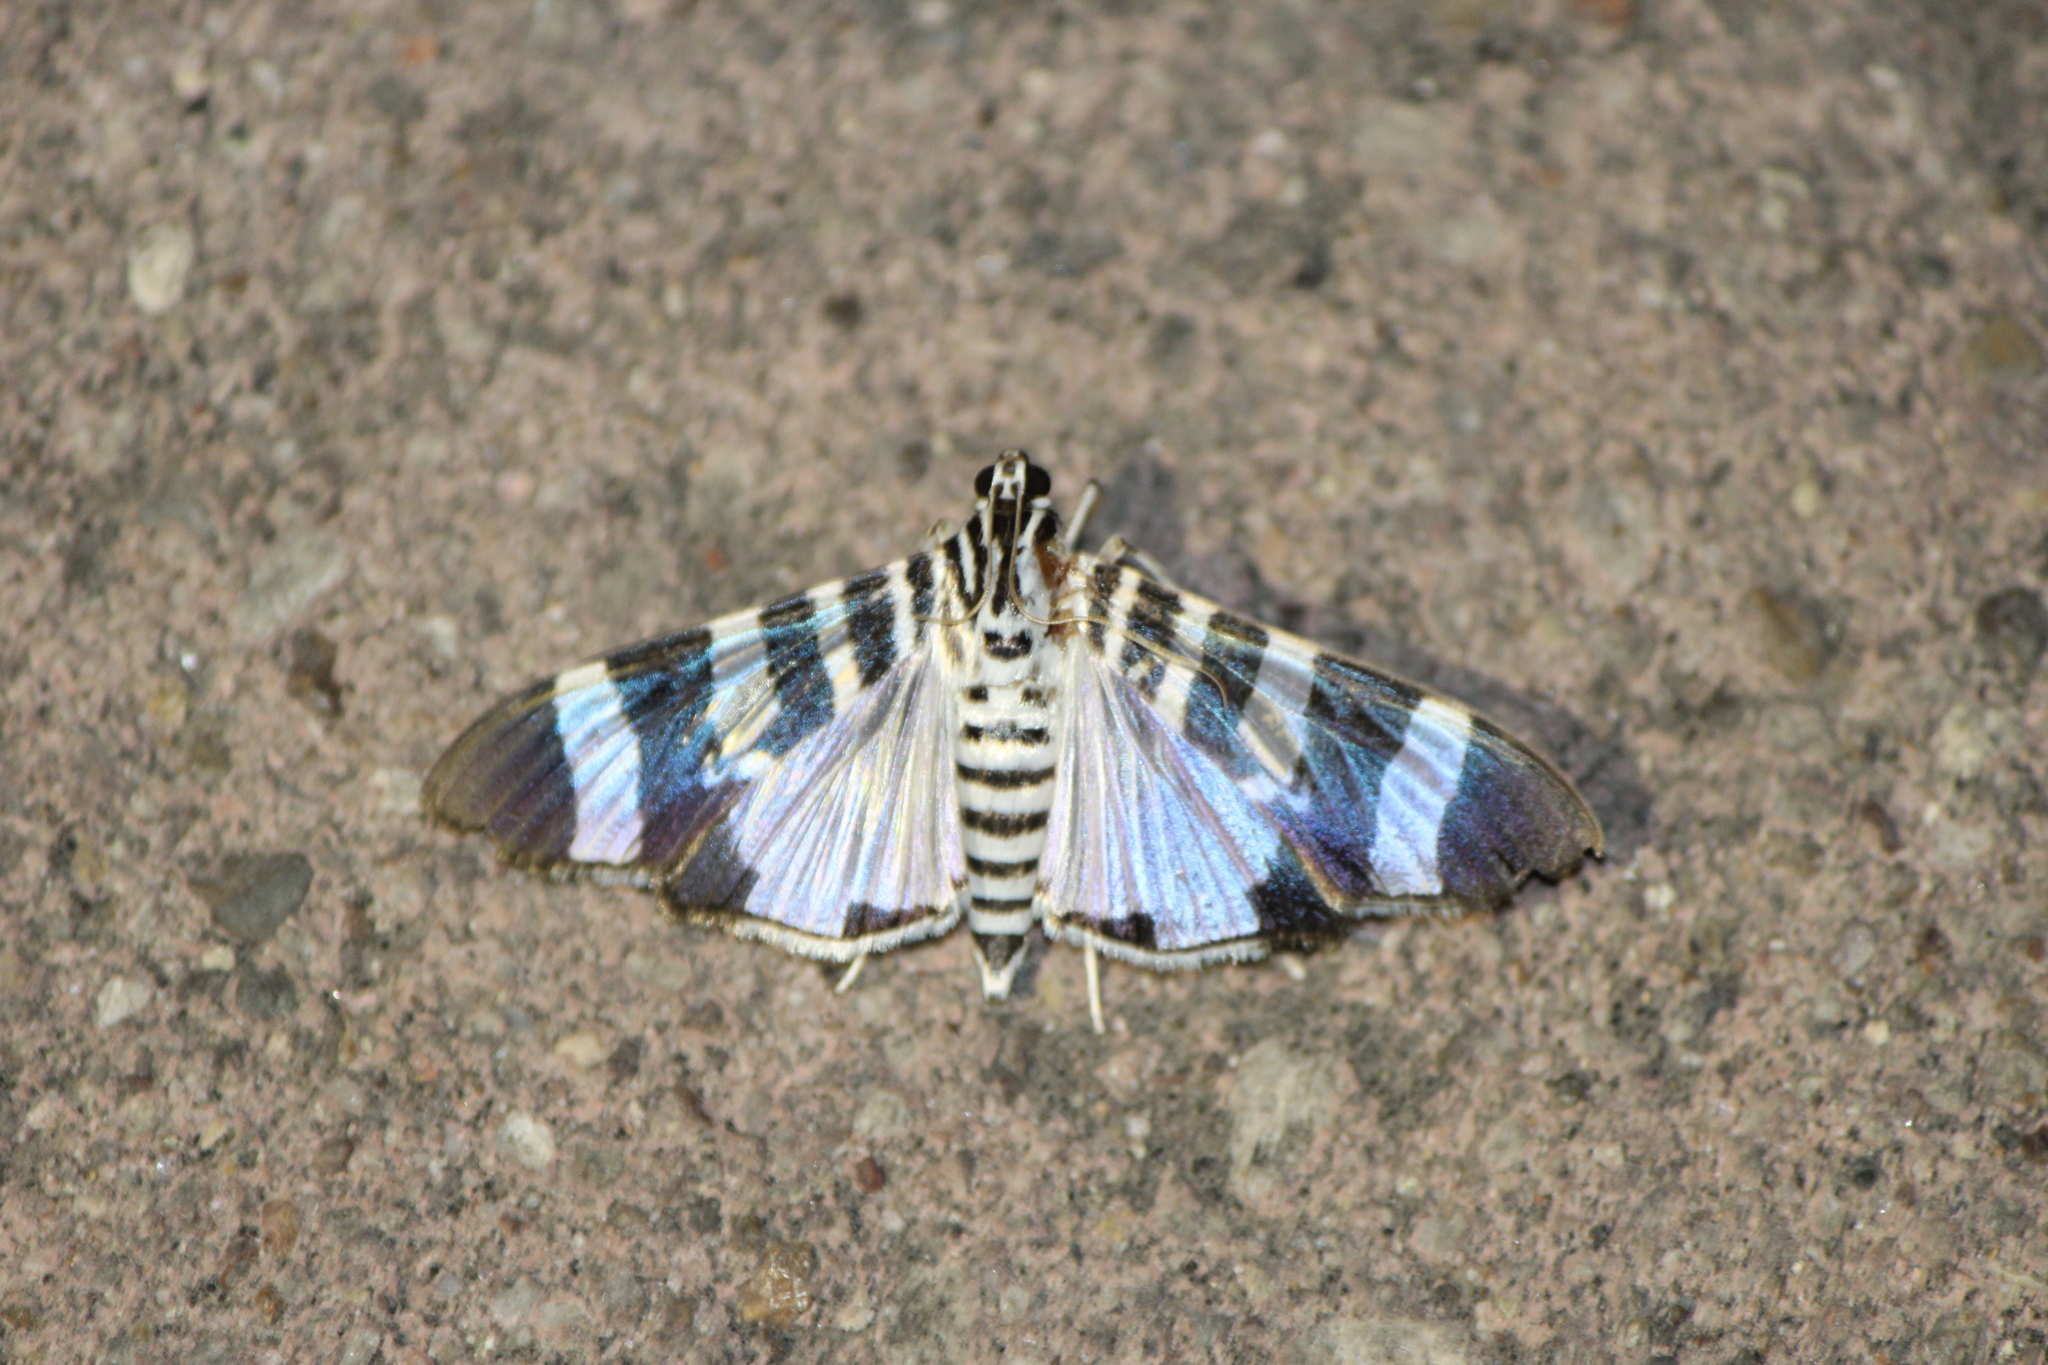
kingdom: Animalia
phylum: Arthropoda
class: Insecta
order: Lepidoptera
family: Crambidae
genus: Lypotigris
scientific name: Lypotigris reginalis
